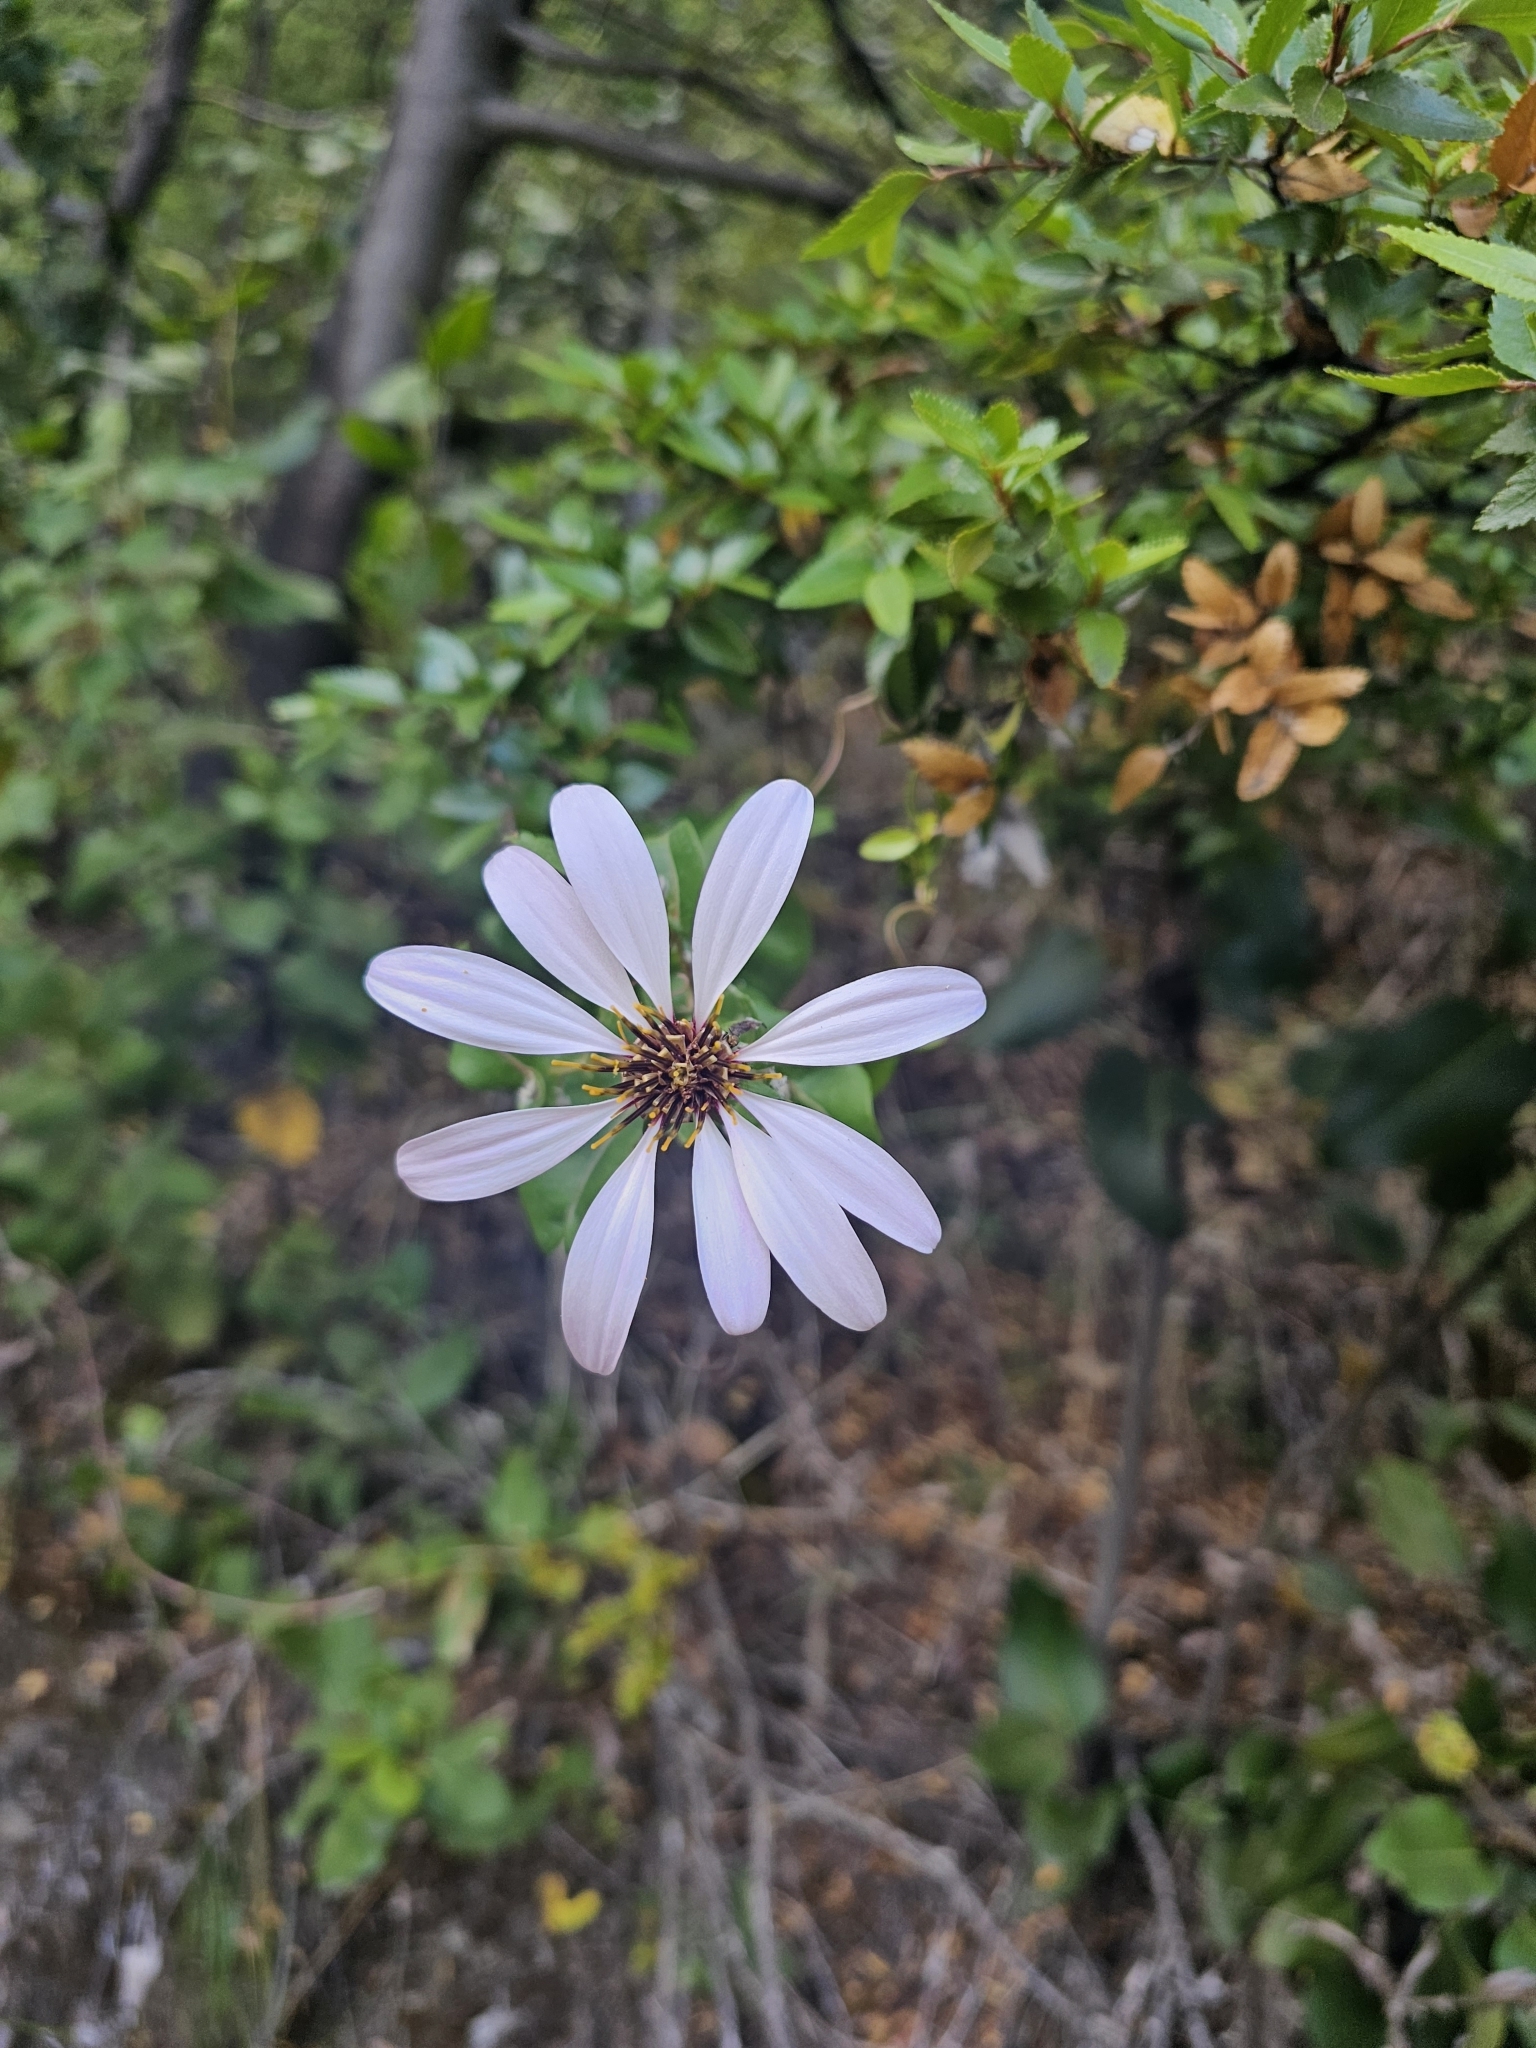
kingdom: Plantae
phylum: Tracheophyta
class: Magnoliopsida
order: Asterales
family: Asteraceae
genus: Mutisia
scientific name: Mutisia spinosa
